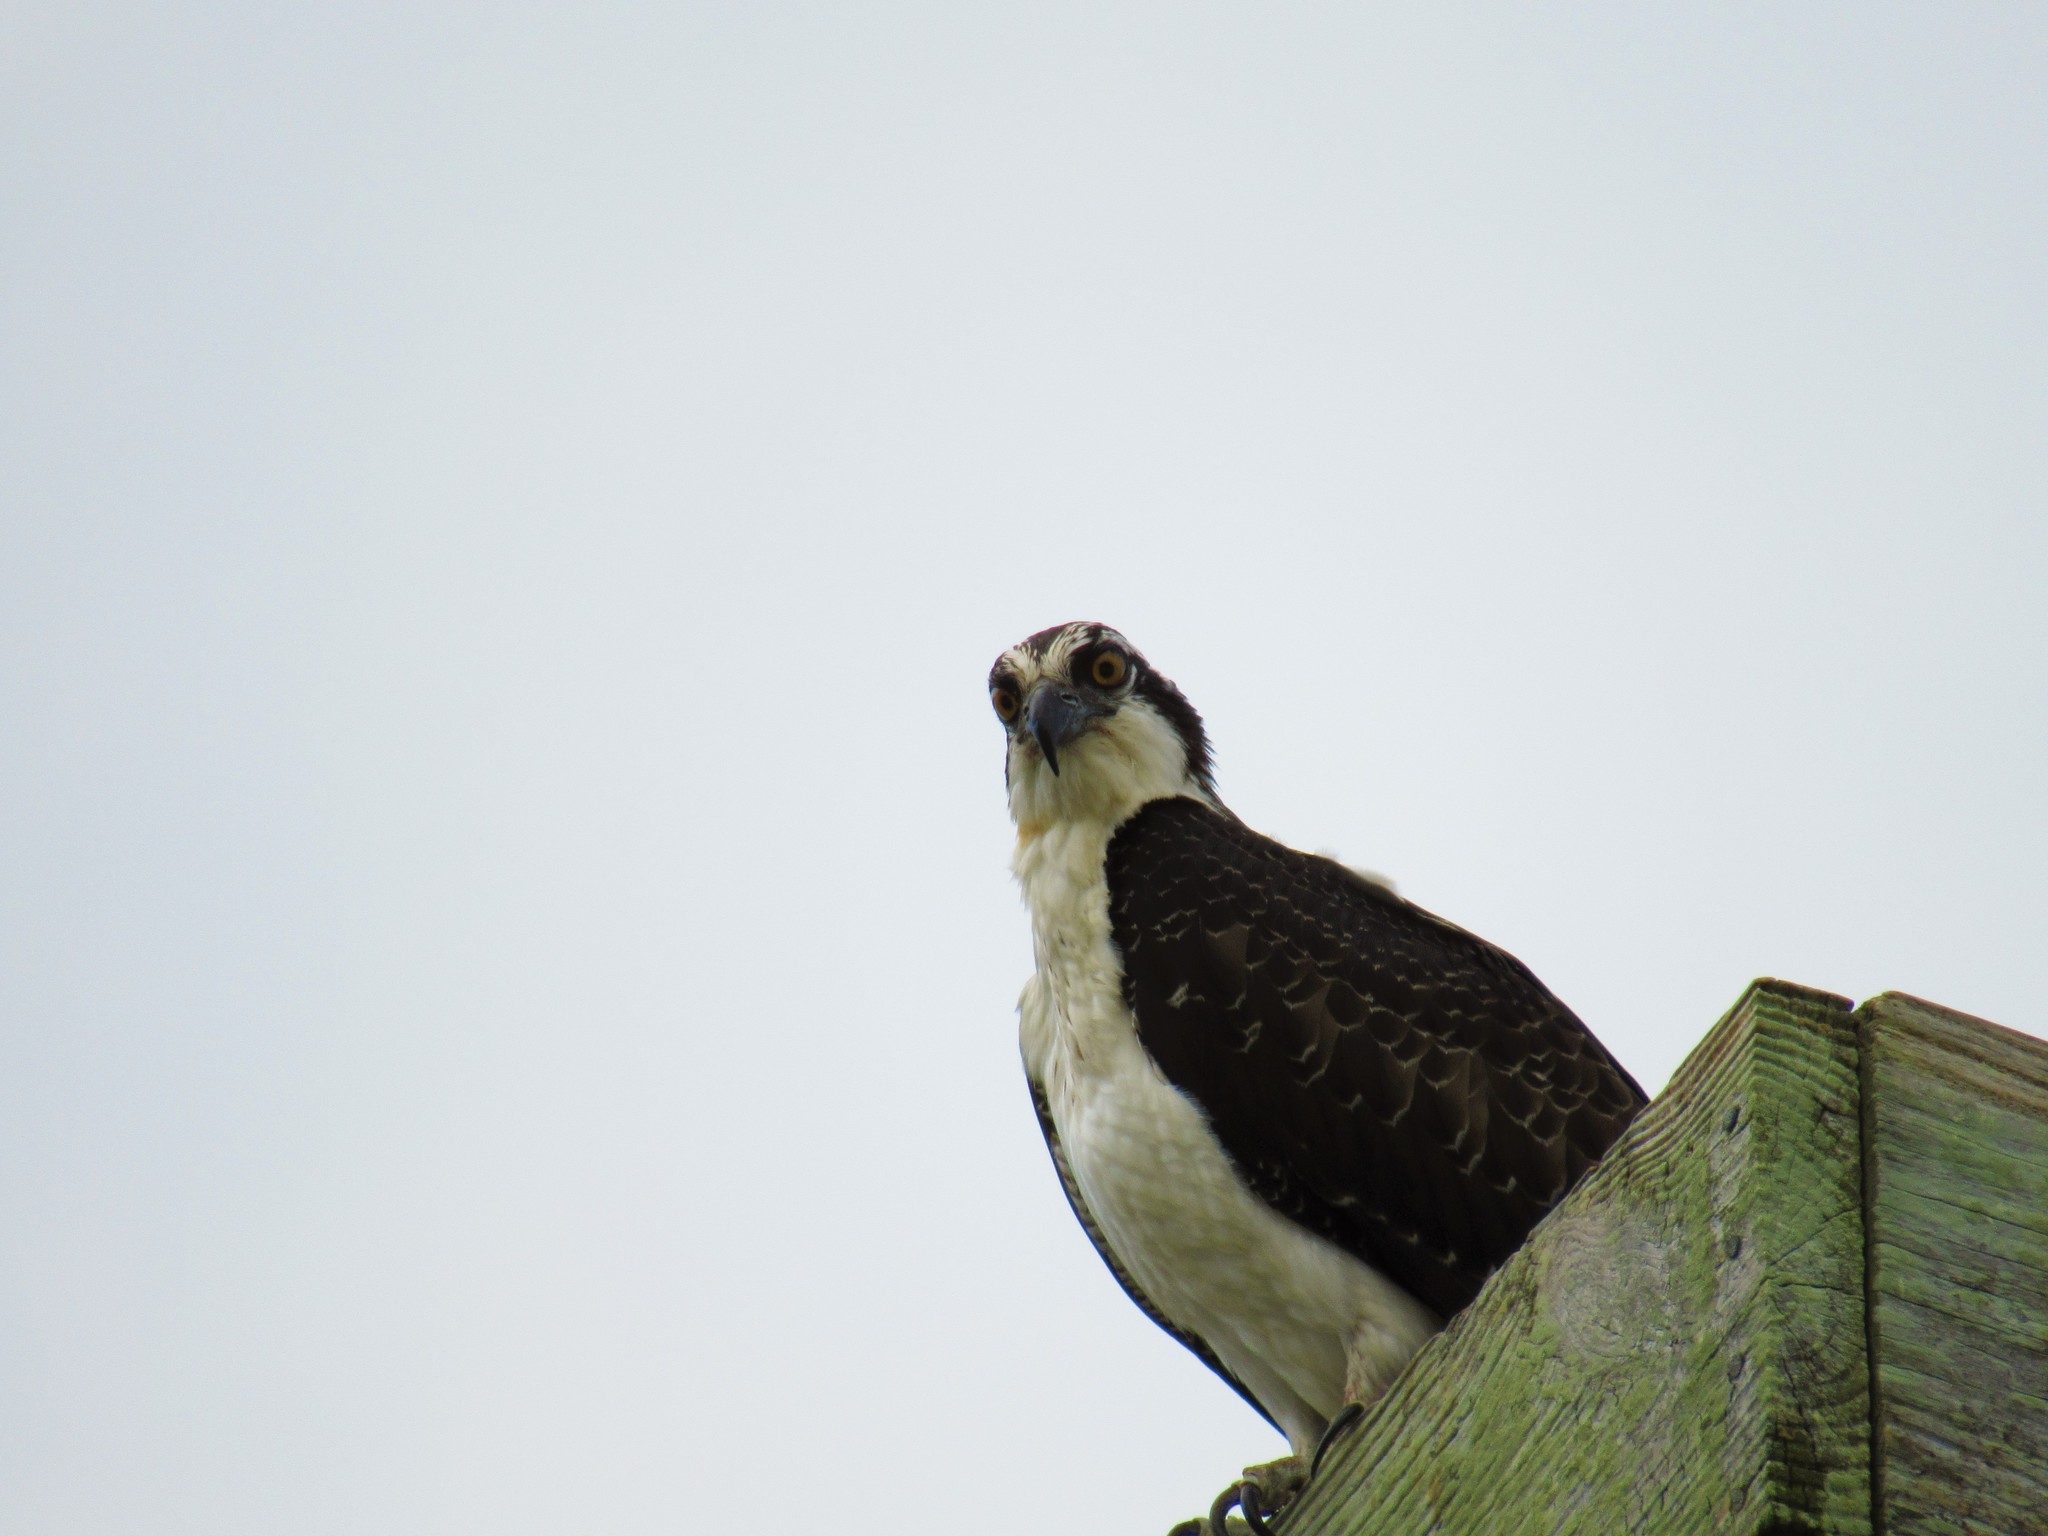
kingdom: Animalia
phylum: Chordata
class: Aves
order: Accipitriformes
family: Pandionidae
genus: Pandion
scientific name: Pandion haliaetus
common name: Osprey
